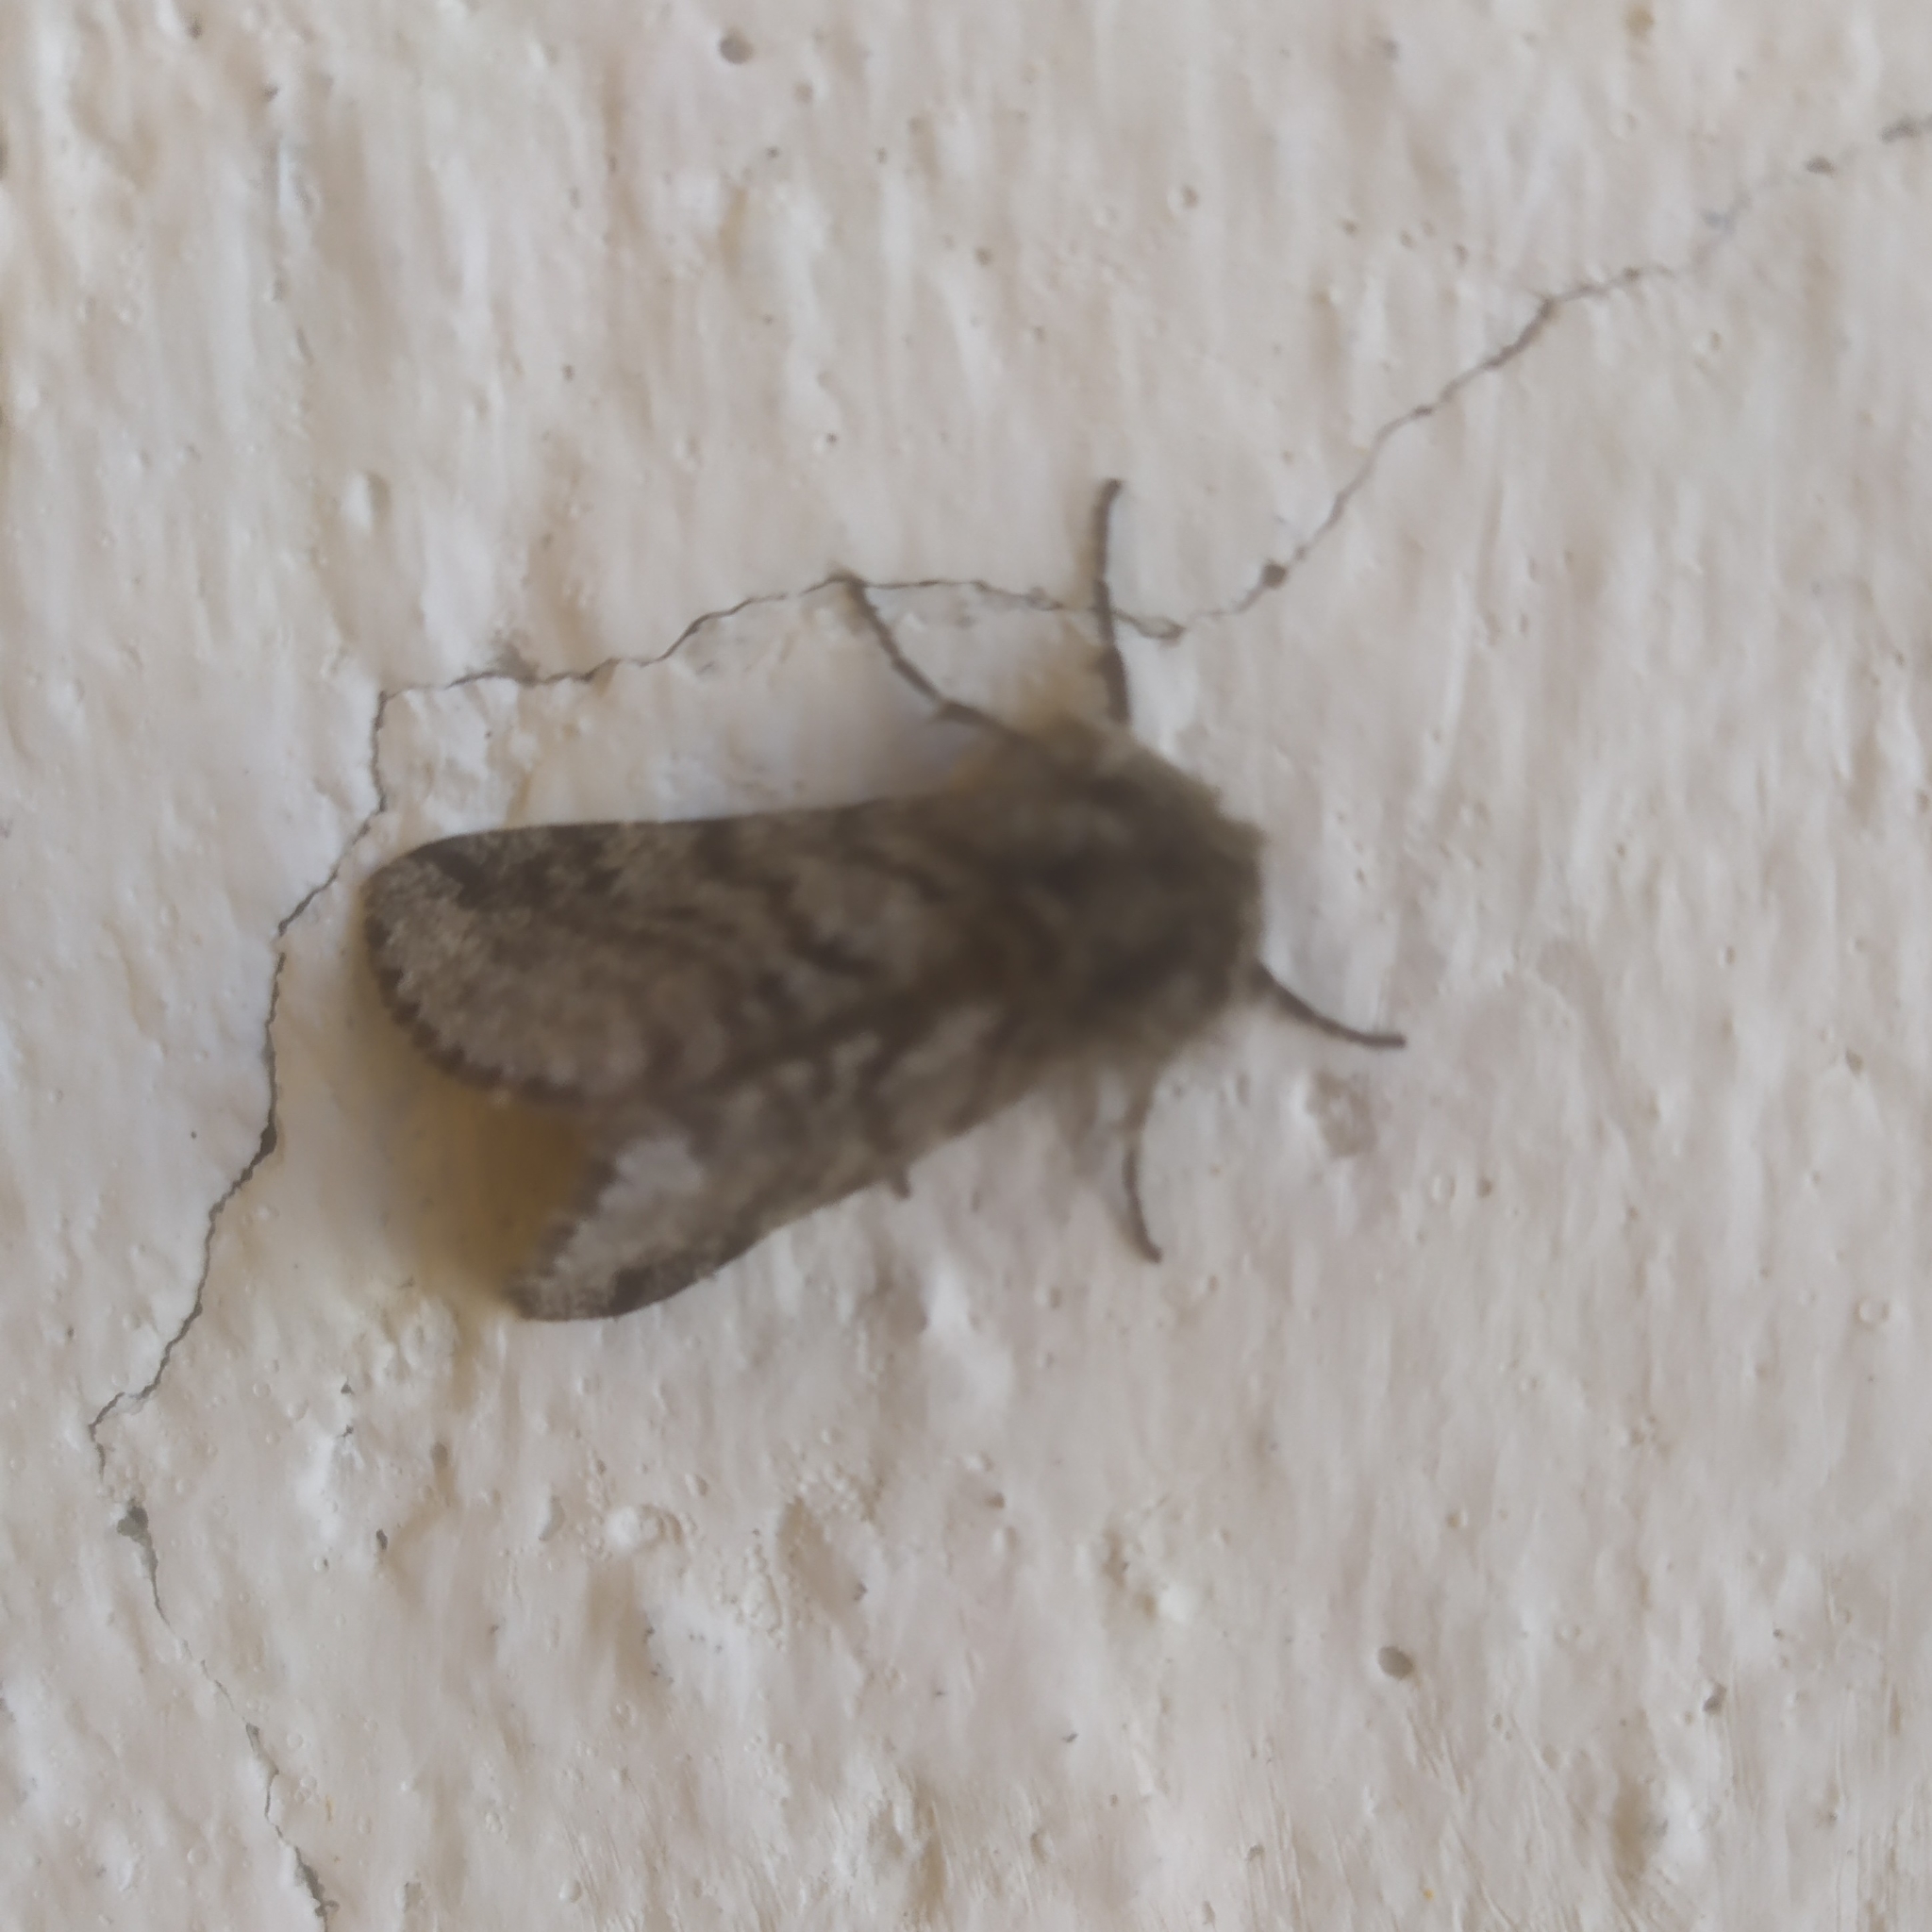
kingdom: Animalia
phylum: Arthropoda
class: Insecta
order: Lepidoptera
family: Geometridae
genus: Lycia
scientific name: Lycia hirtaria
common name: Brindled beauty
